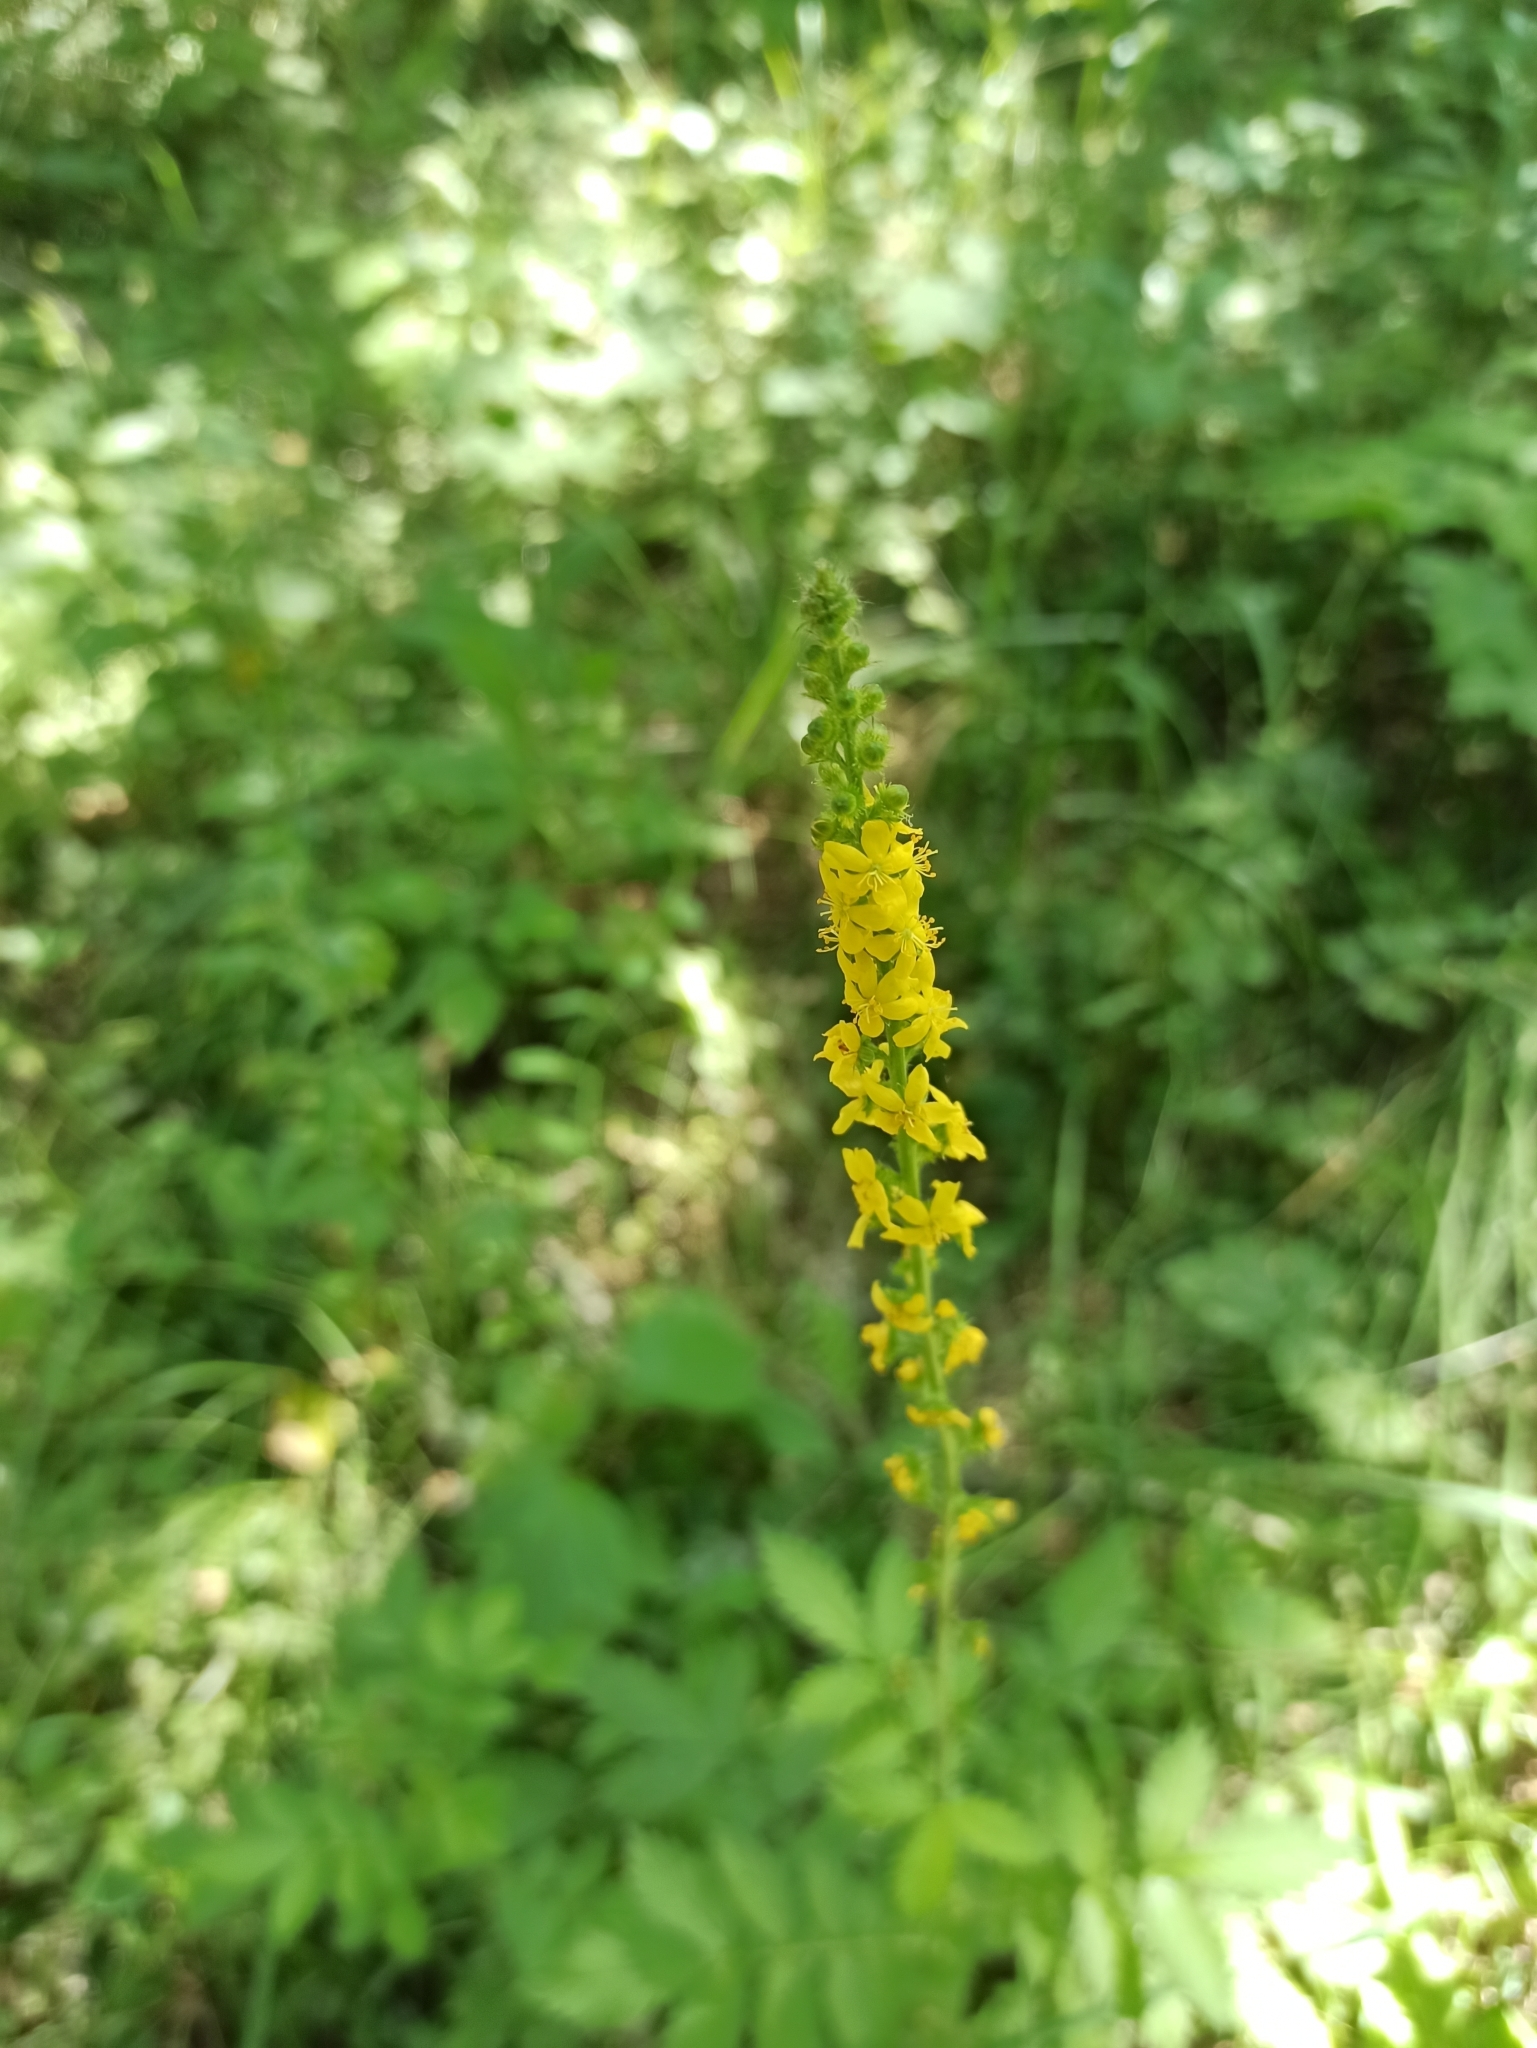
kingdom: Plantae
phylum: Tracheophyta
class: Magnoliopsida
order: Rosales
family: Rosaceae
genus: Agrimonia
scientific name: Agrimonia eupatoria
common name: Agrimony
